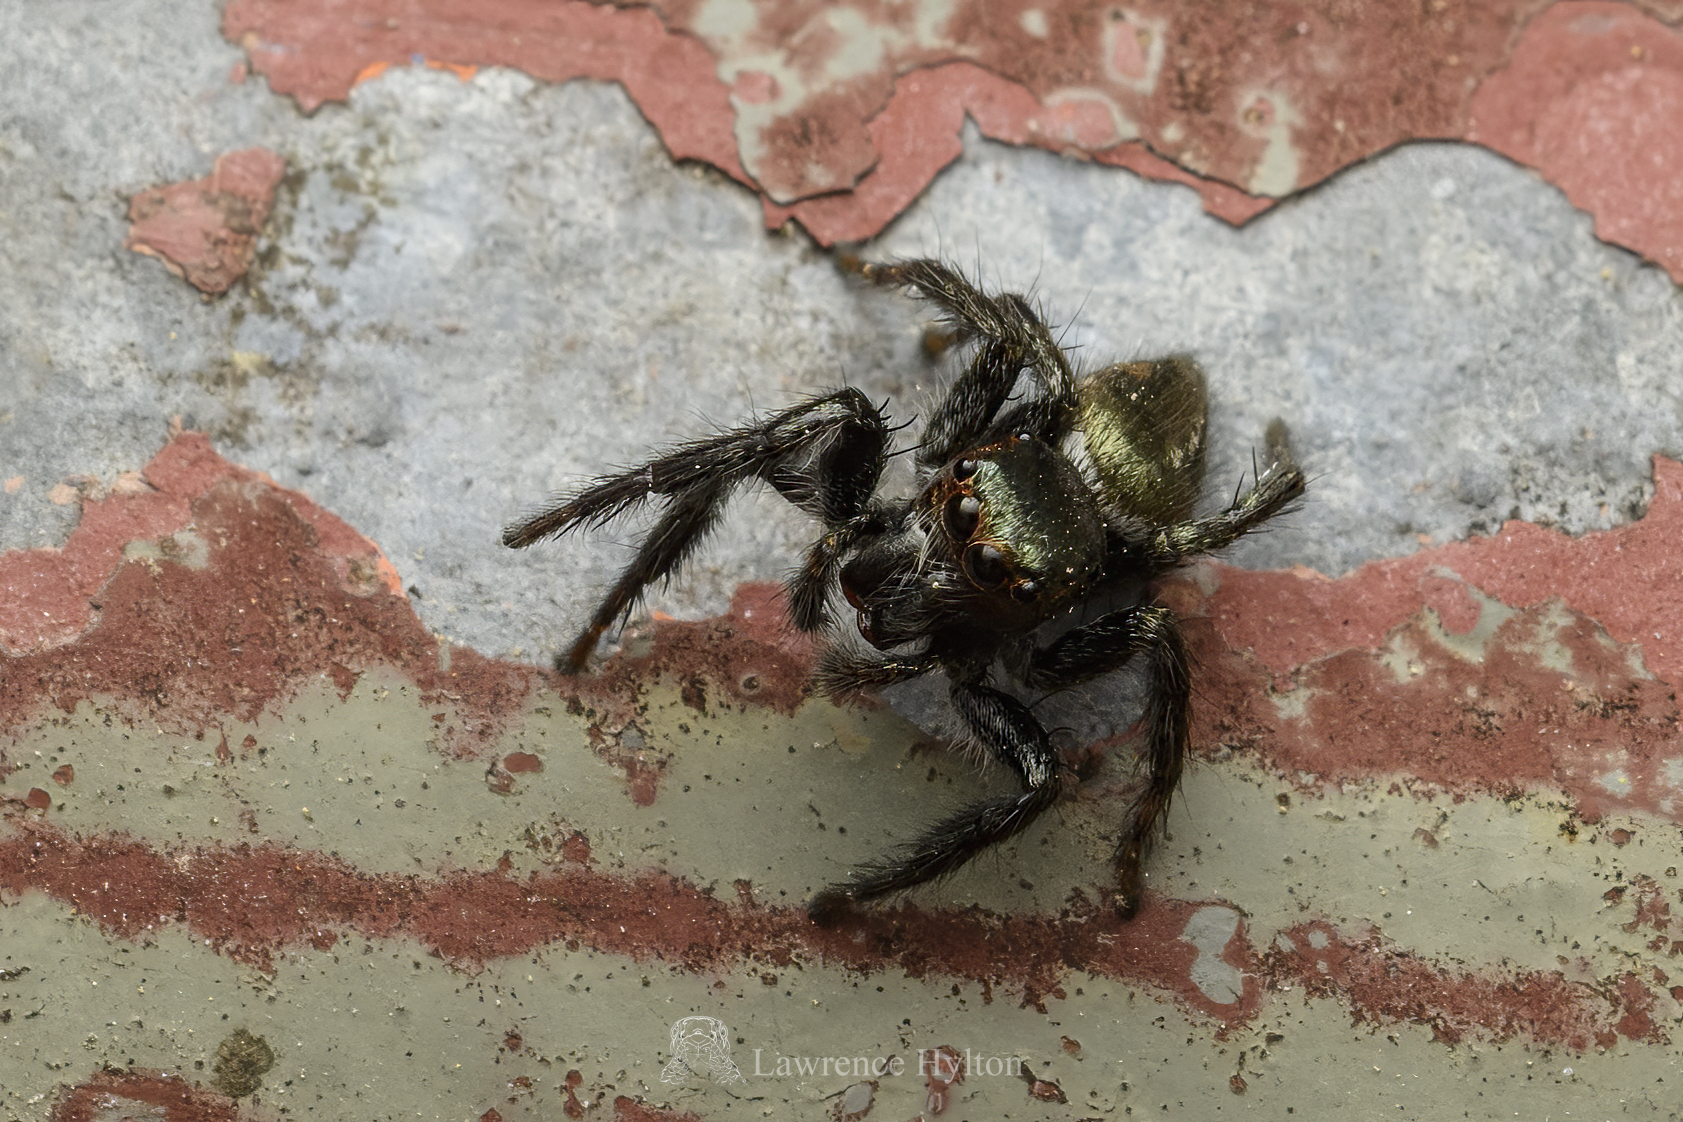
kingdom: Animalia
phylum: Arthropoda
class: Arachnida
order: Araneae
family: Salticidae
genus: Carrhotus
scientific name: Carrhotus viduus
